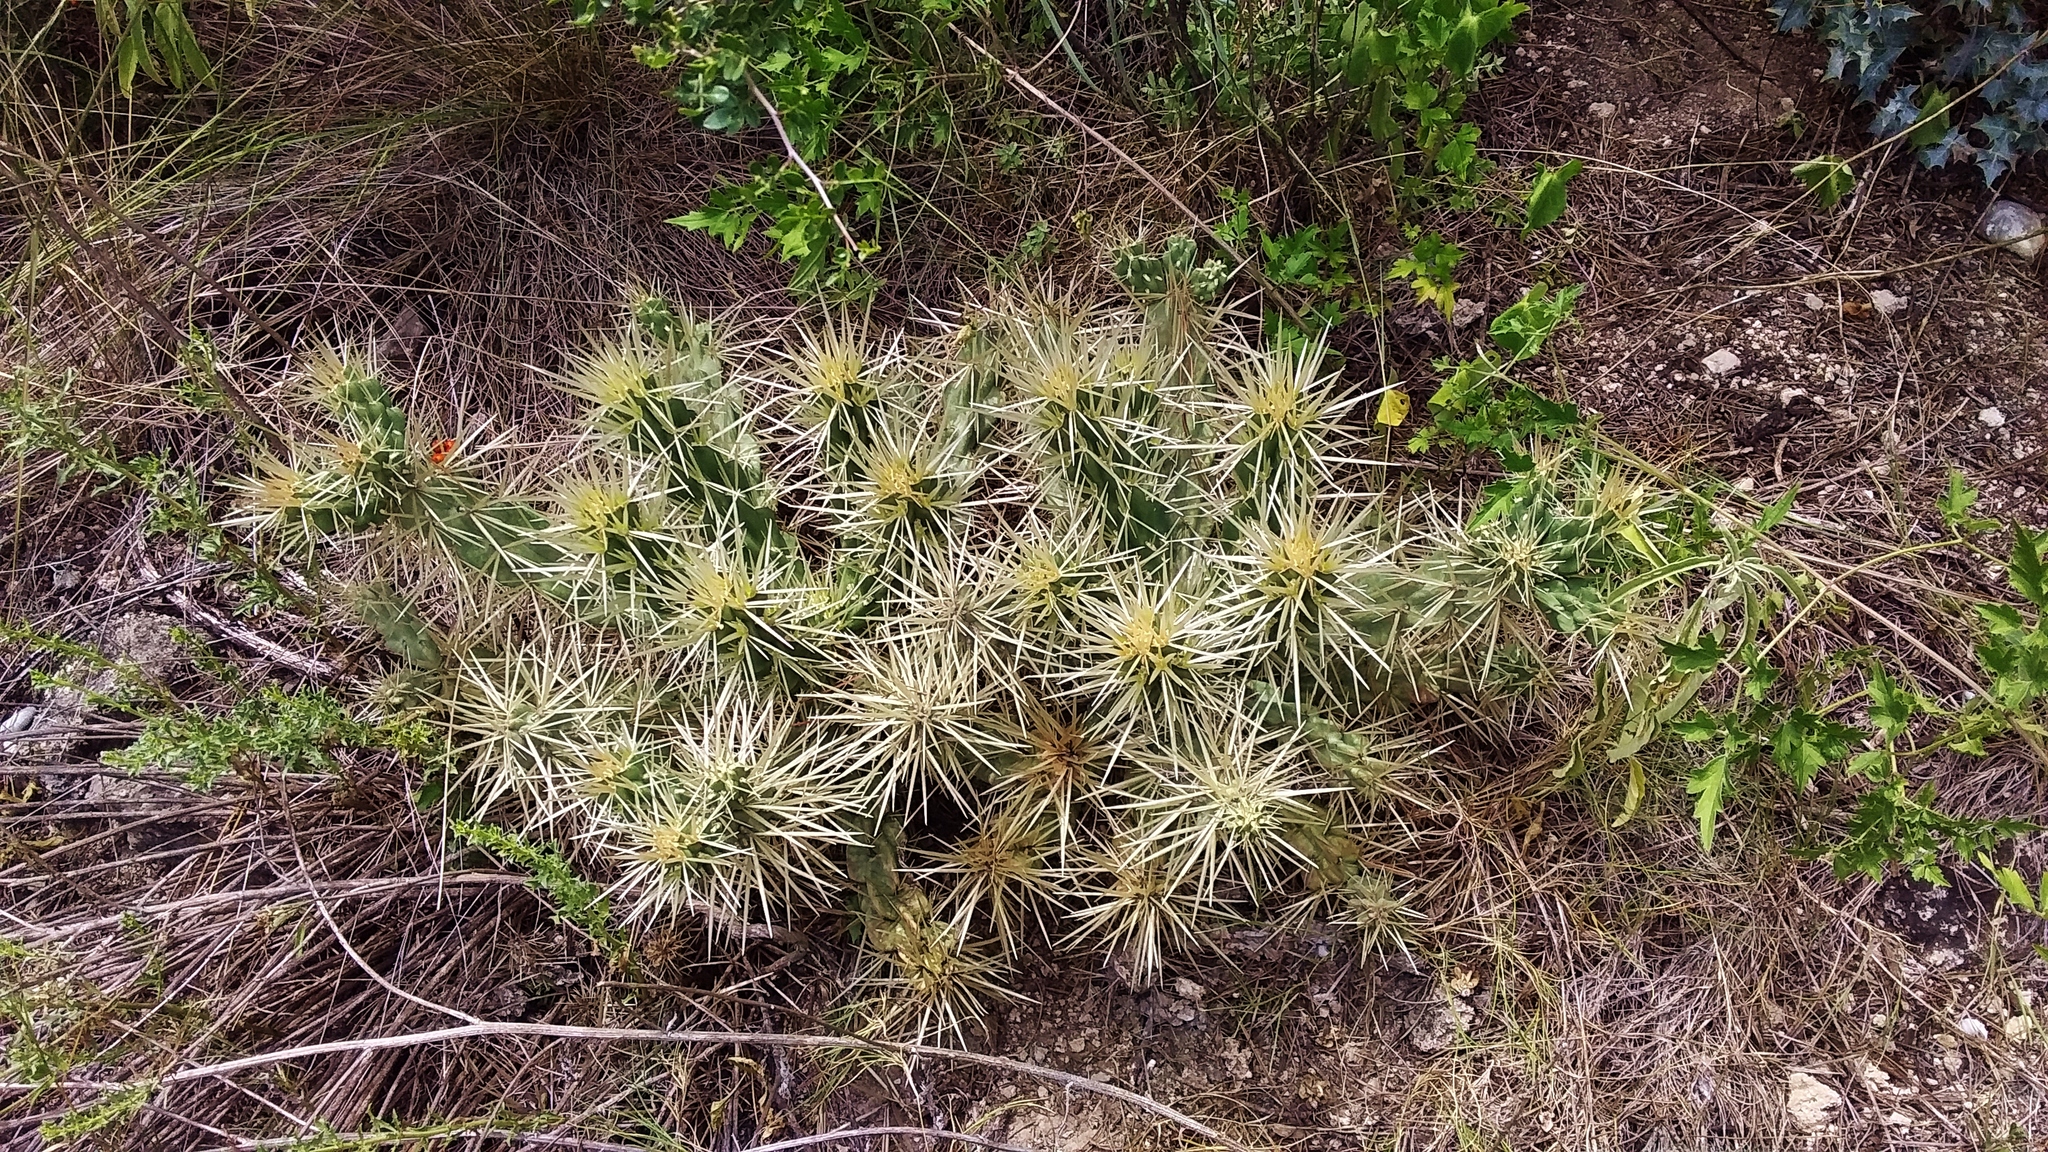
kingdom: Plantae
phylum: Tracheophyta
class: Magnoliopsida
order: Caryophyllales
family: Cactaceae
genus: Cylindropuntia
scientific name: Cylindropuntia tunicata
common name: Sheathed cholla
